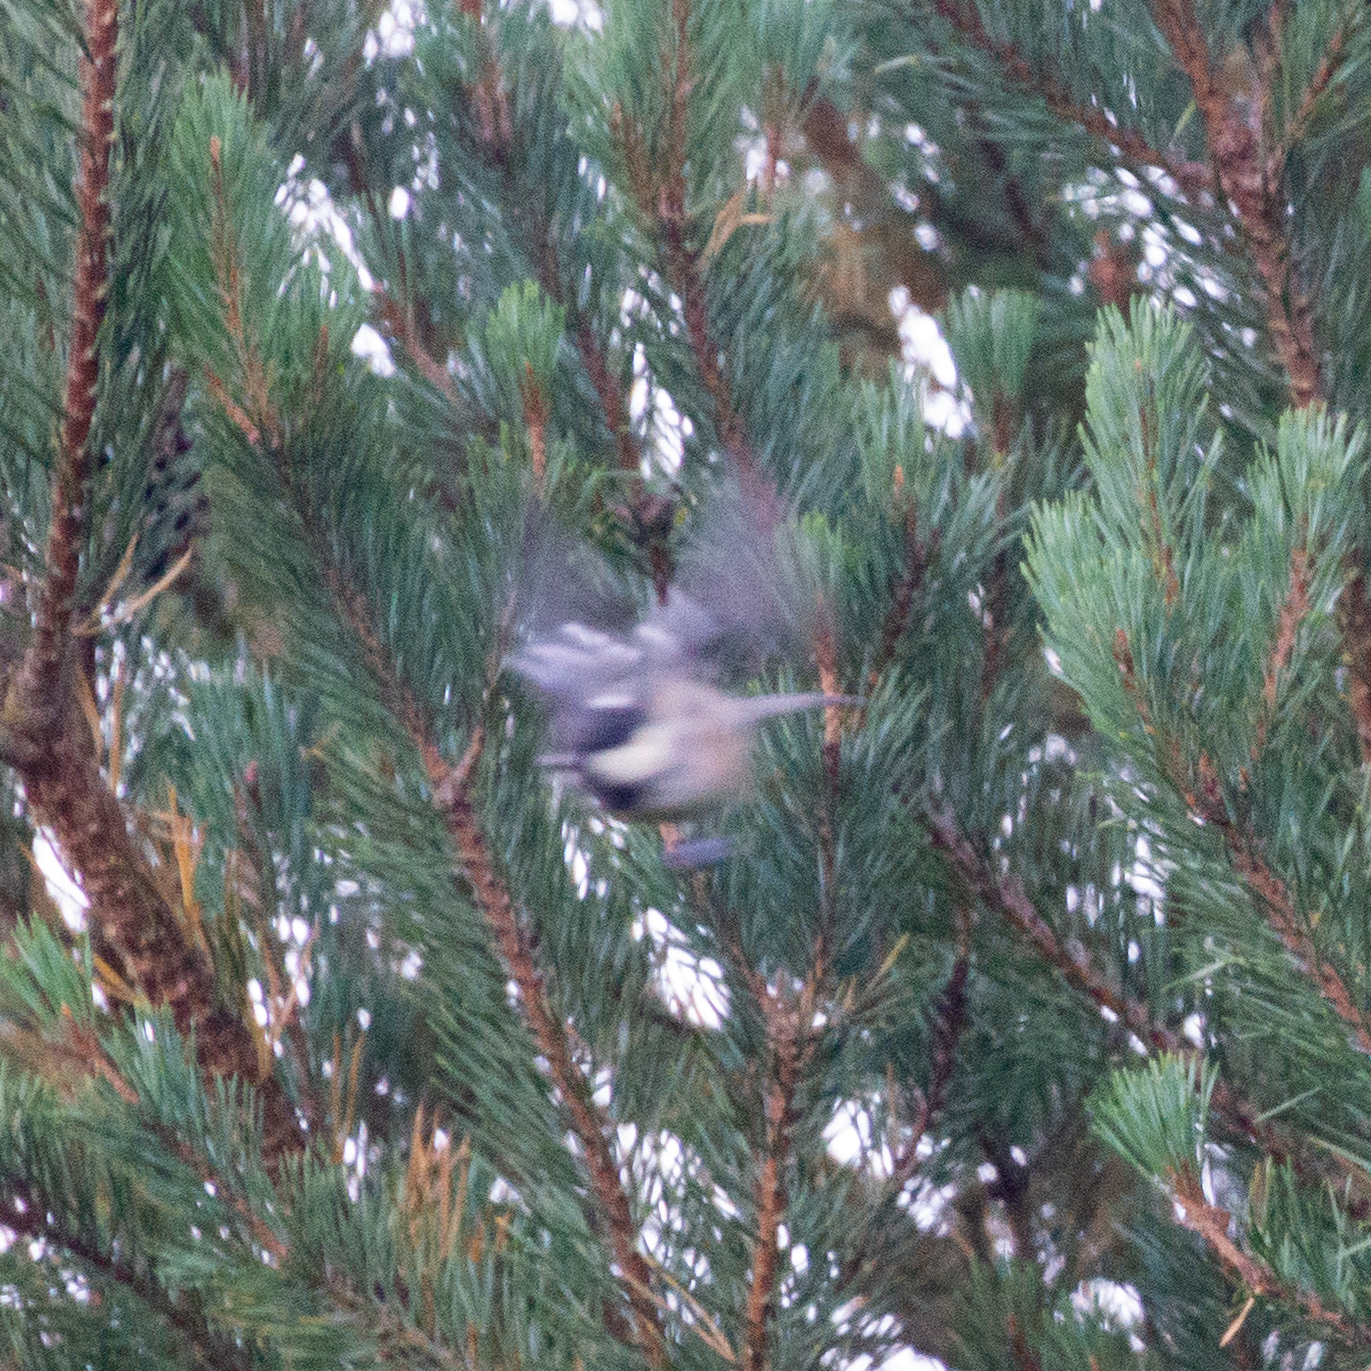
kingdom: Animalia
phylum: Chordata
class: Aves
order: Passeriformes
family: Paridae
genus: Periparus
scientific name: Periparus ater
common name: Coal tit
